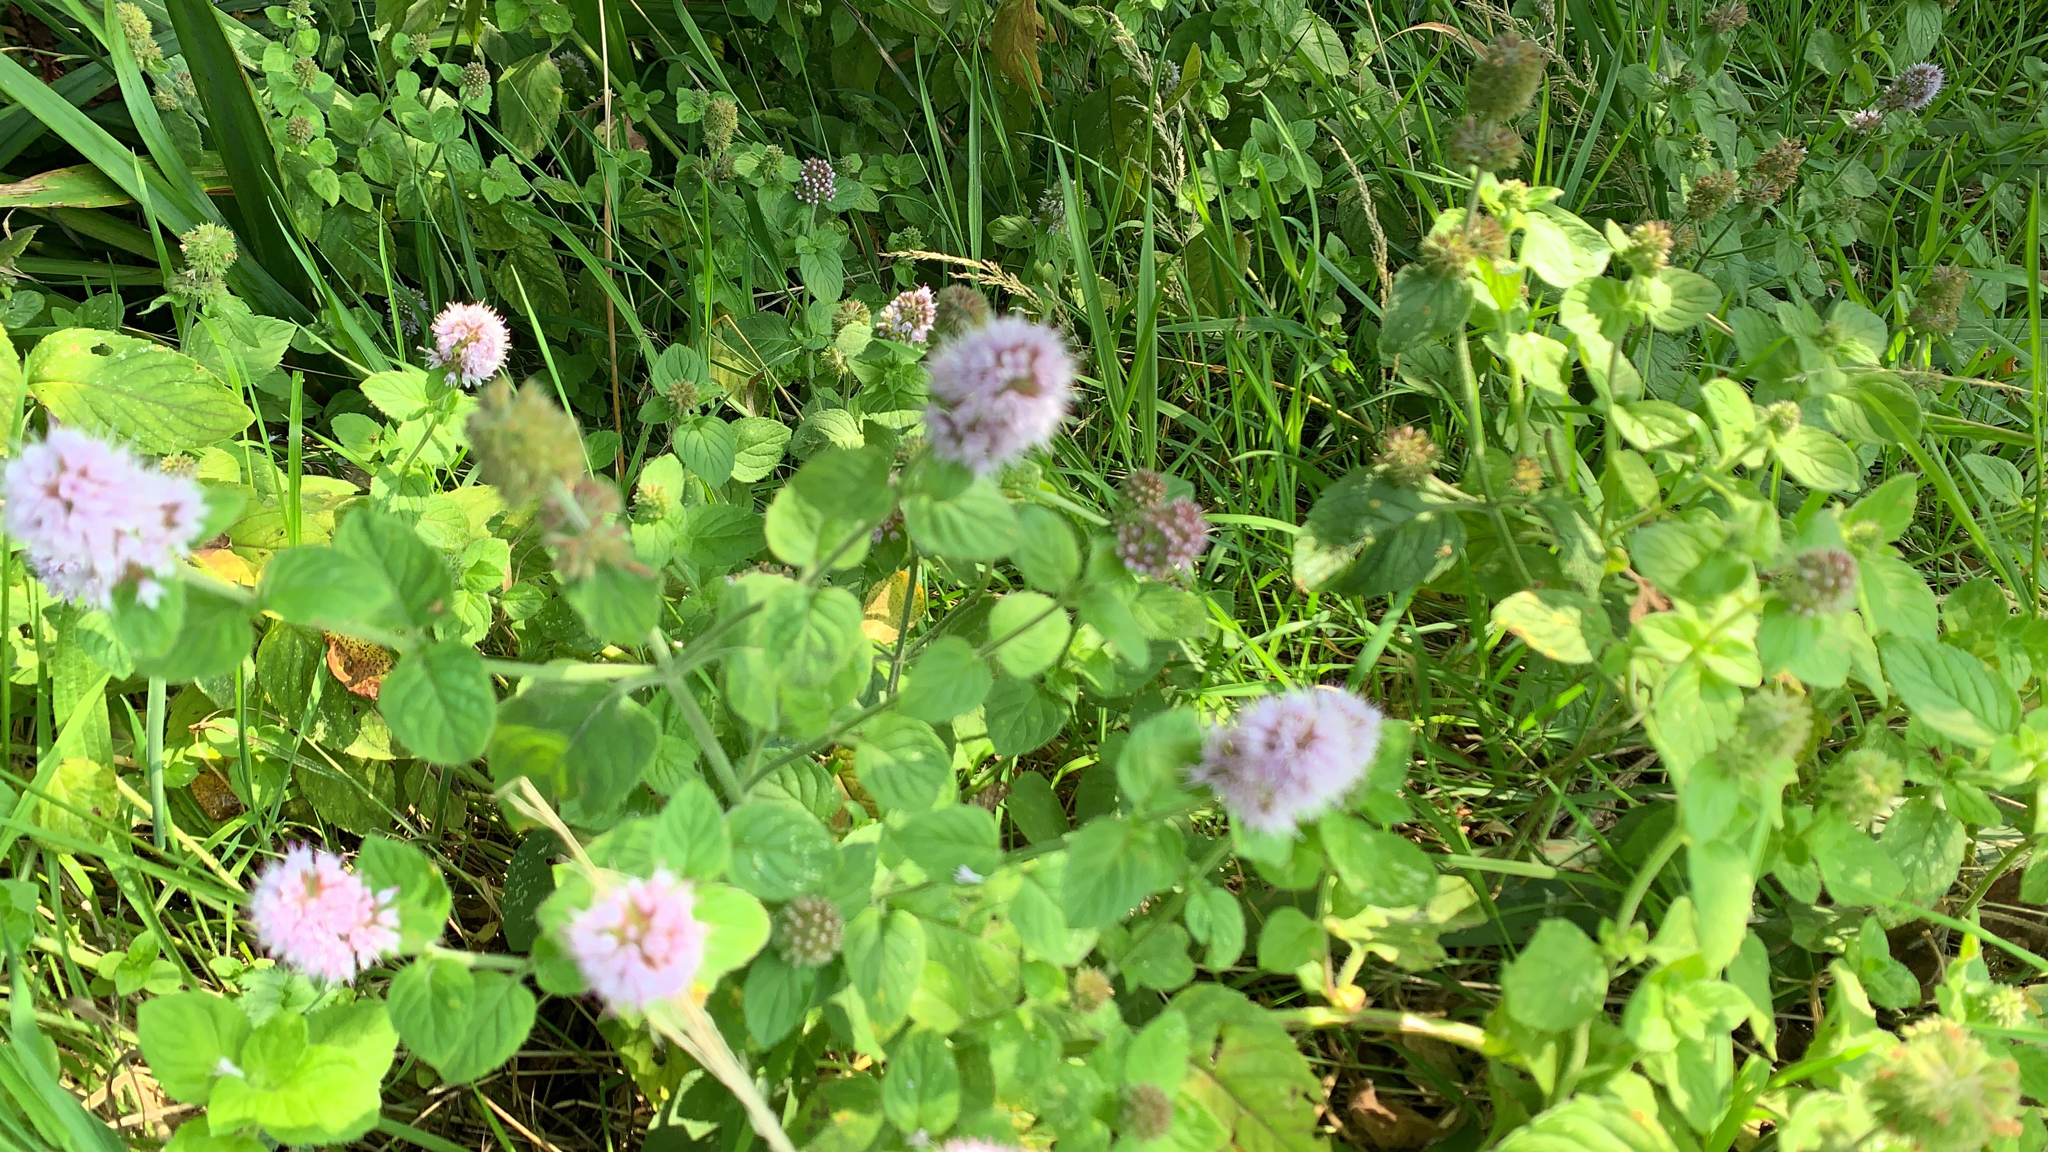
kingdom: Plantae
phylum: Tracheophyta
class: Magnoliopsida
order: Lamiales
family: Lamiaceae
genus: Mentha
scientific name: Mentha aquatica
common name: Water mint
